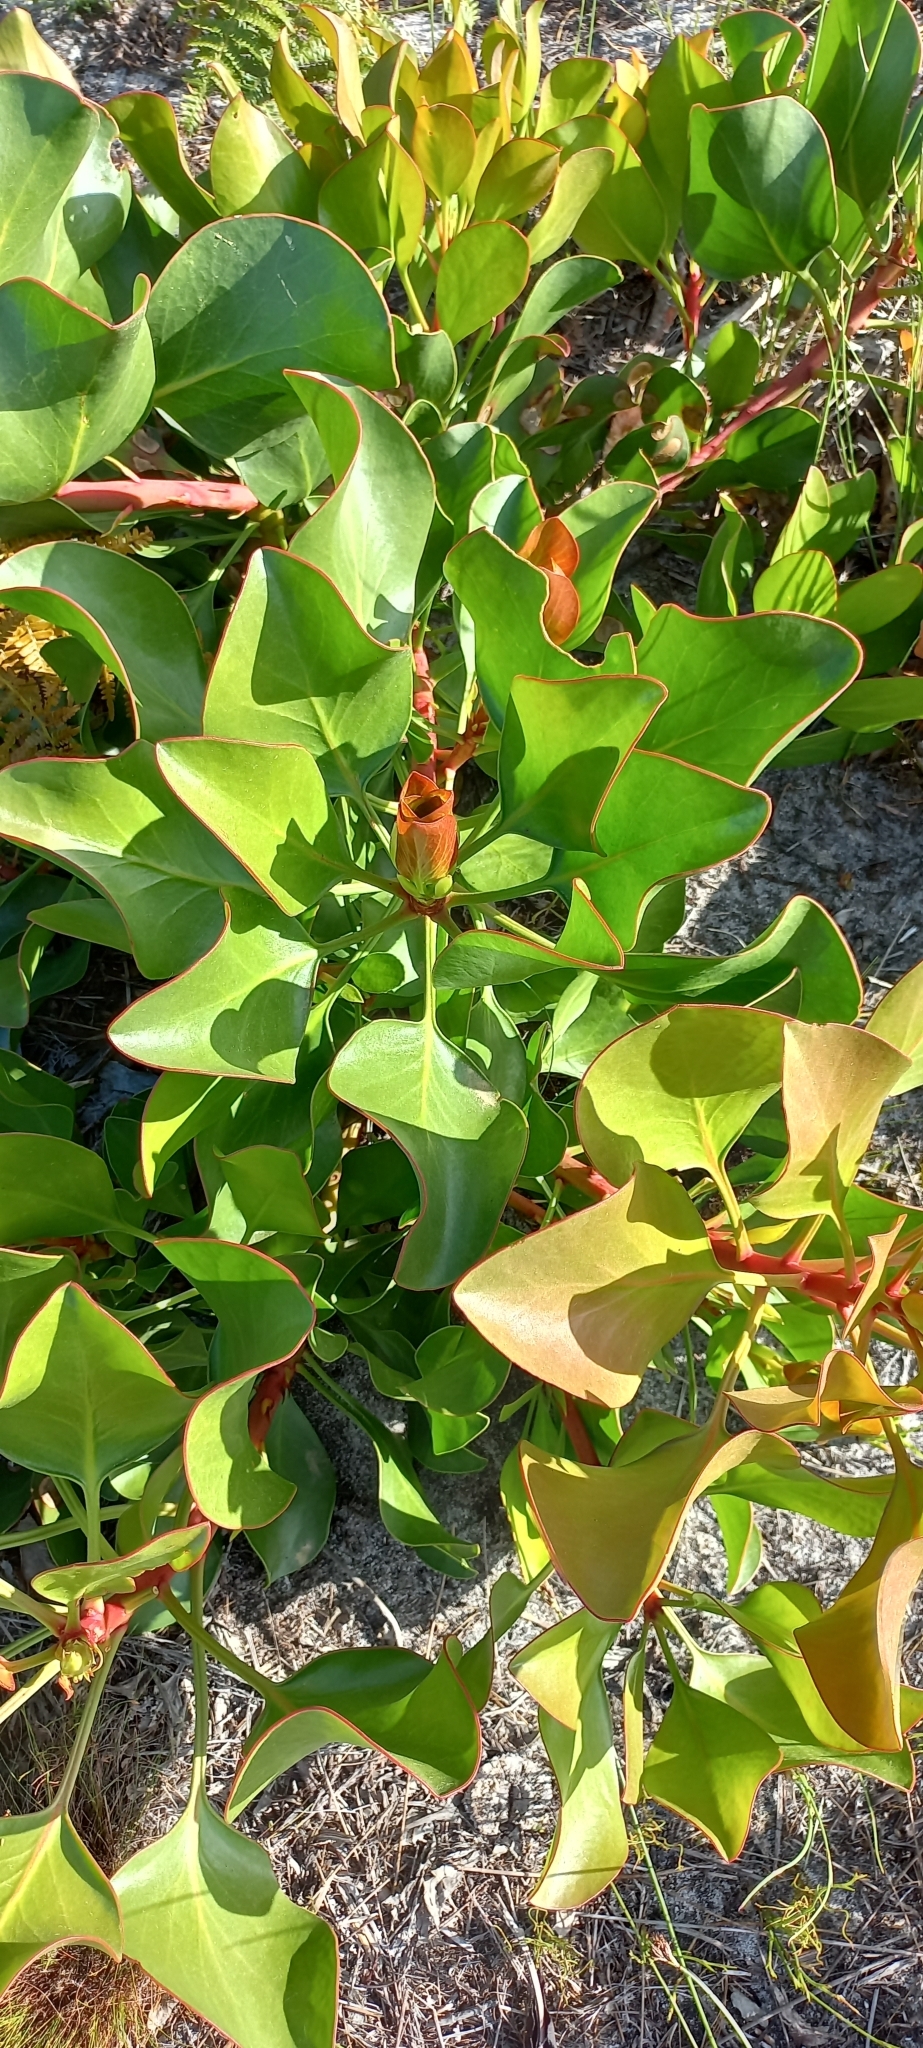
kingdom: Plantae
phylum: Tracheophyta
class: Magnoliopsida
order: Proteales
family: Proteaceae
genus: Protea
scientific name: Protea cynaroides
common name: King protea
